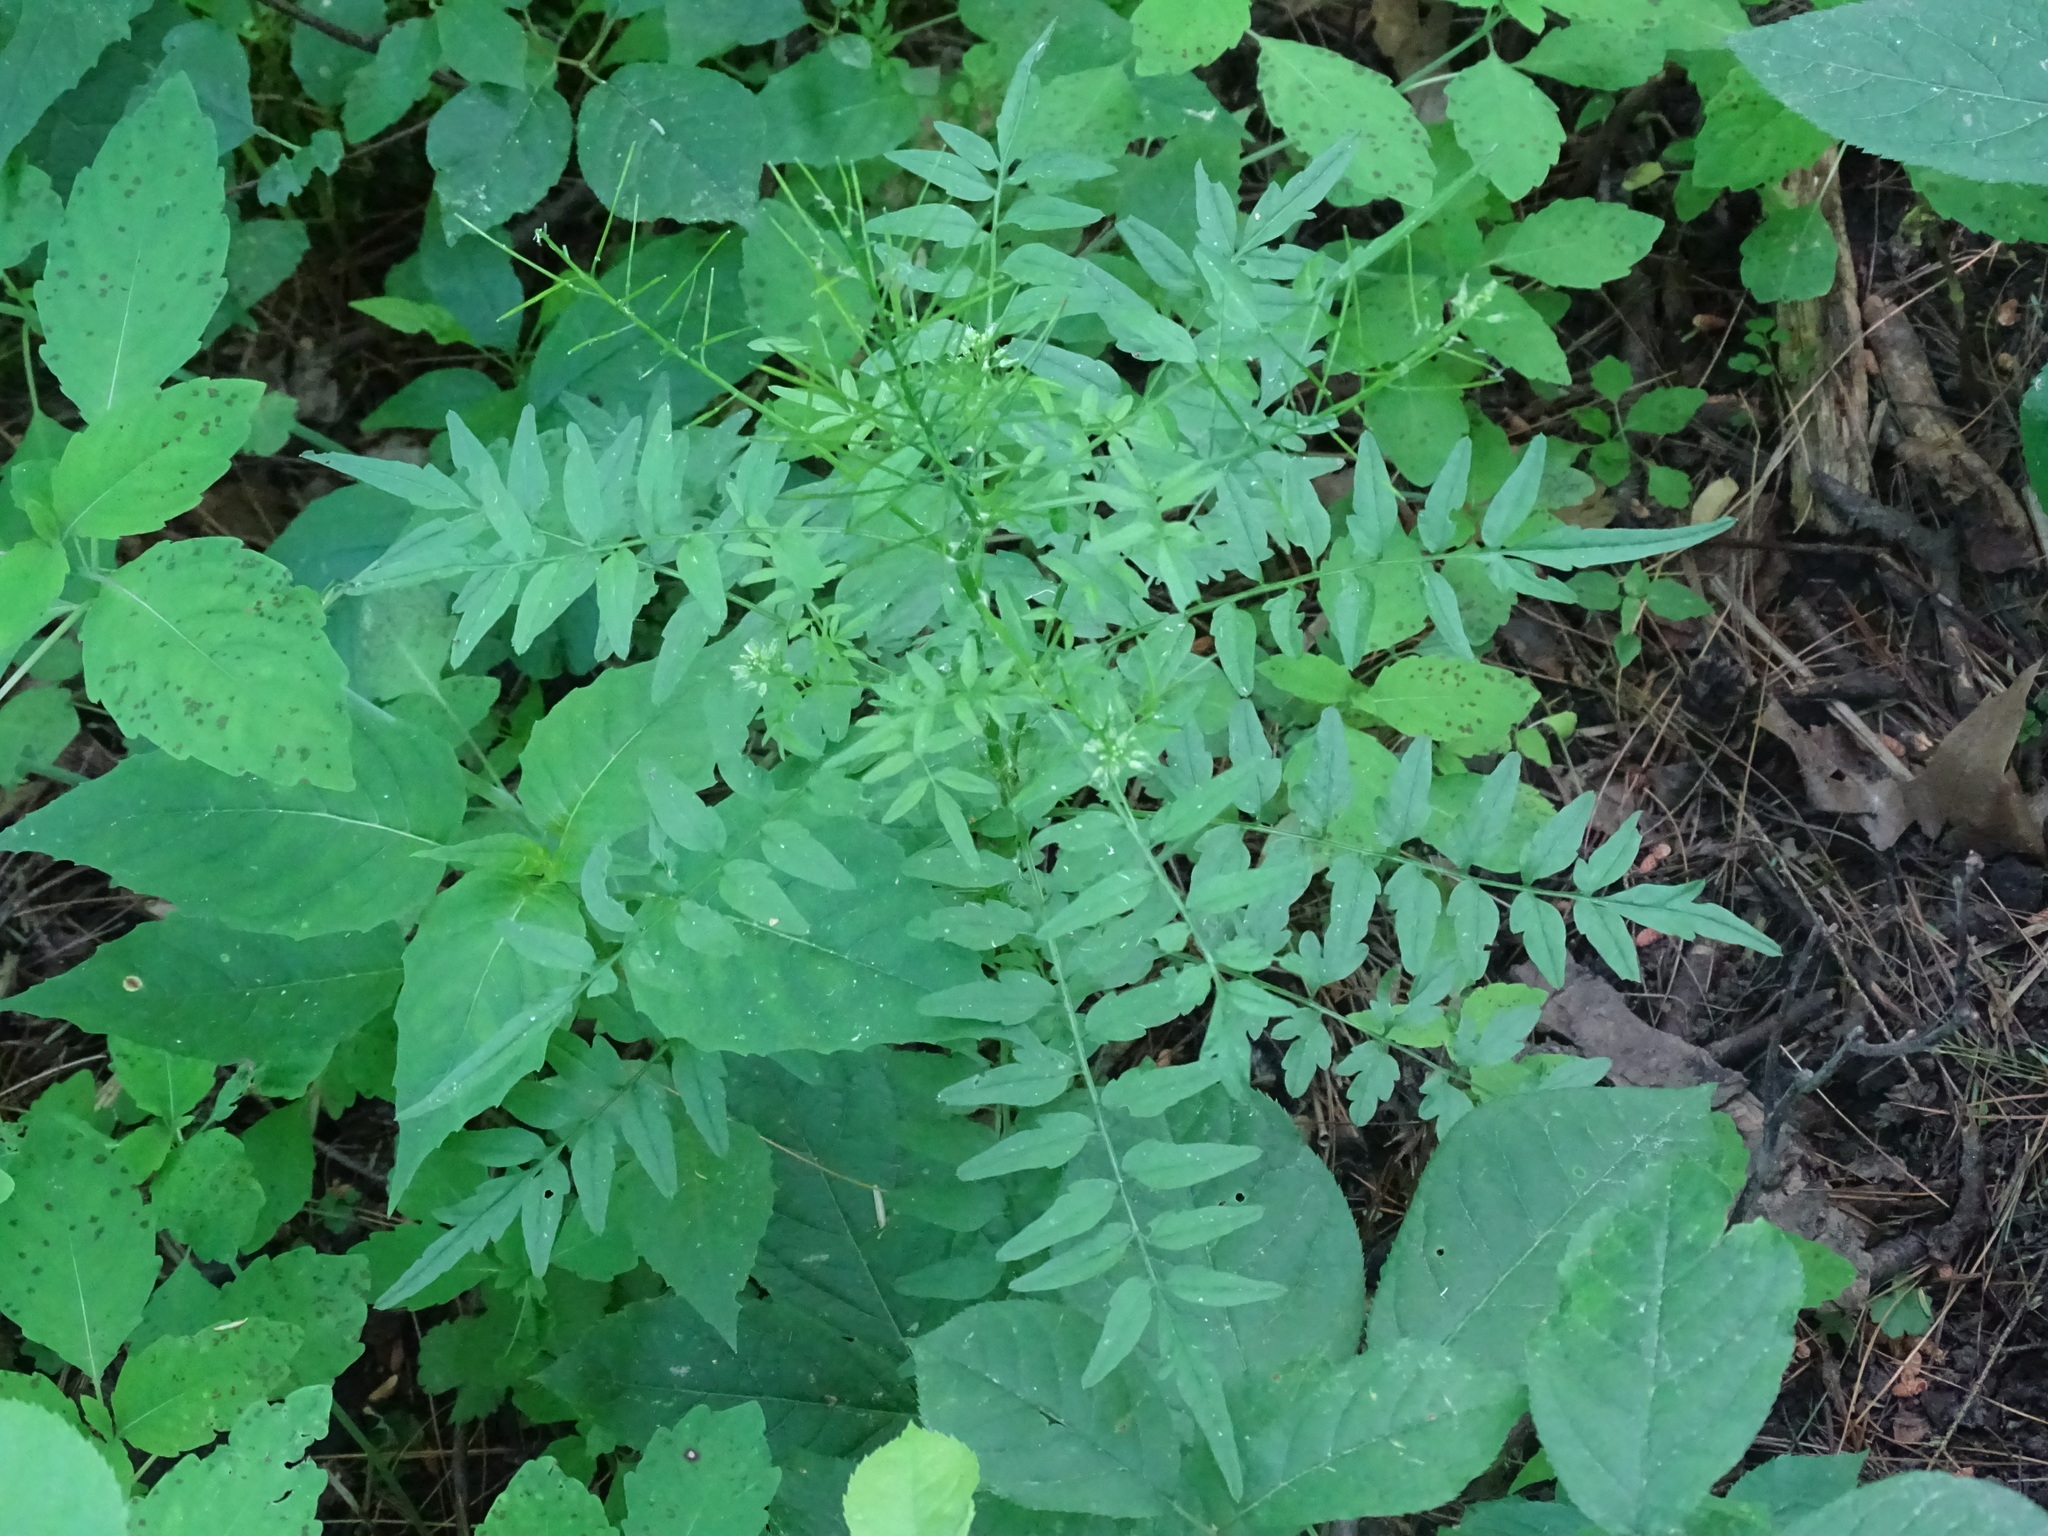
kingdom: Plantae
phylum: Tracheophyta
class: Magnoliopsida
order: Brassicales
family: Brassicaceae
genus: Cardamine
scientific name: Cardamine impatiens
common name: Narrow-leaved bitter-cress
